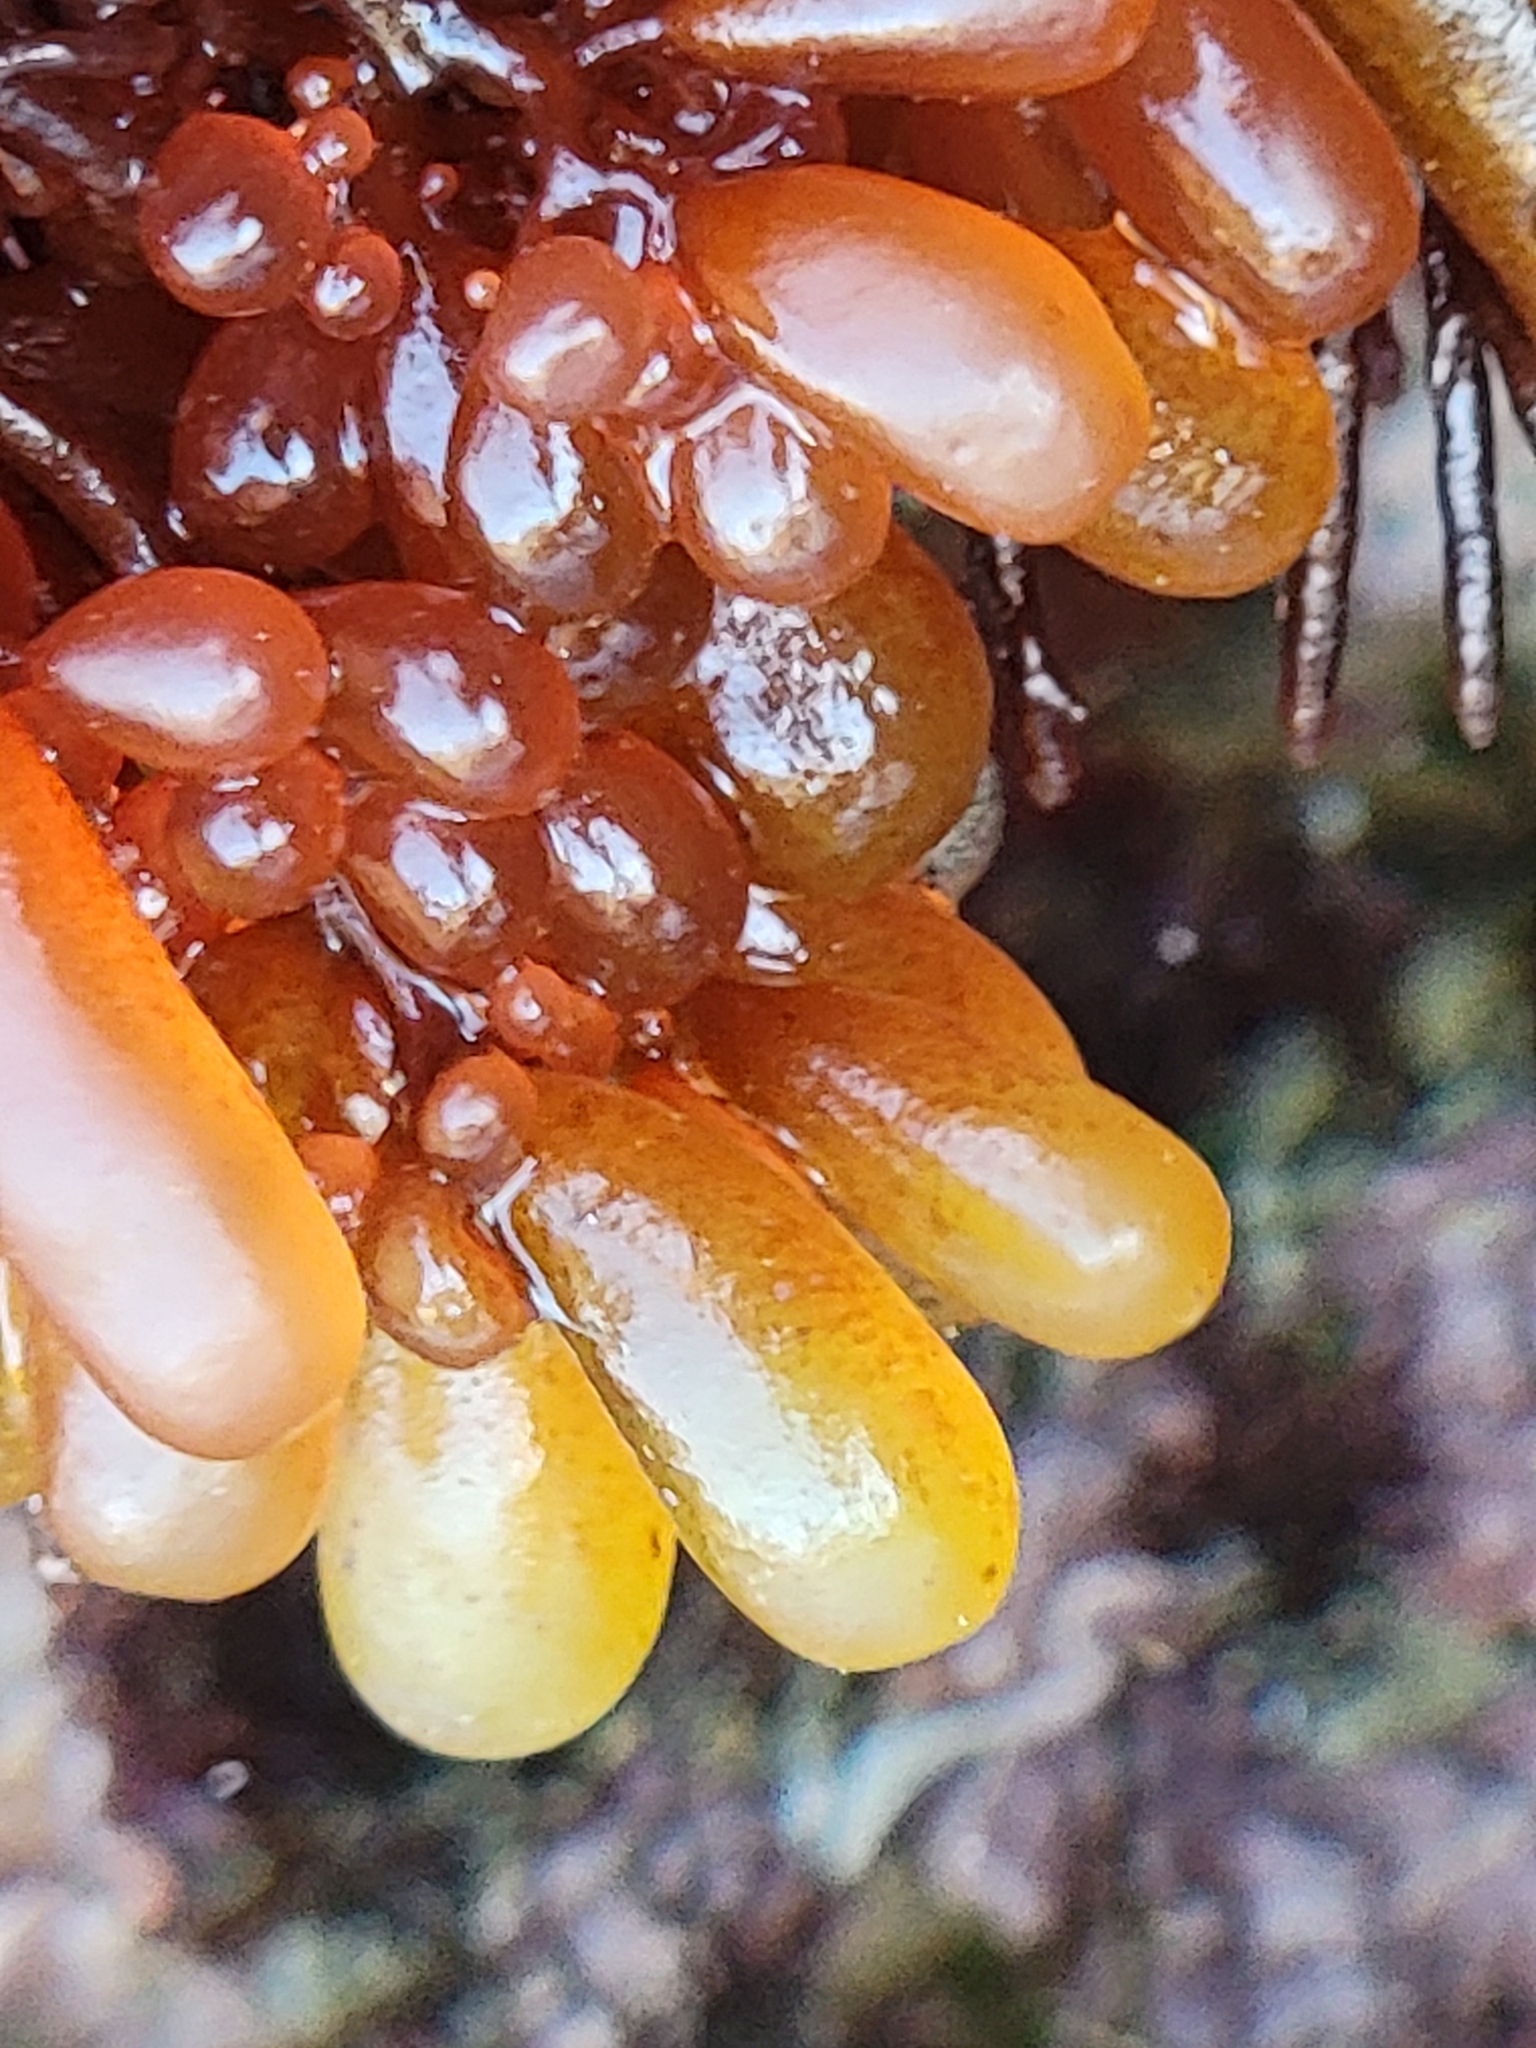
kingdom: Plantae
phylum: Rhodophyta
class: Florideophyceae
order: Rhodymeniales
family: Rhodymeniaceae
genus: Botryocladia
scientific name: Botryocladia pseudodichotoma
